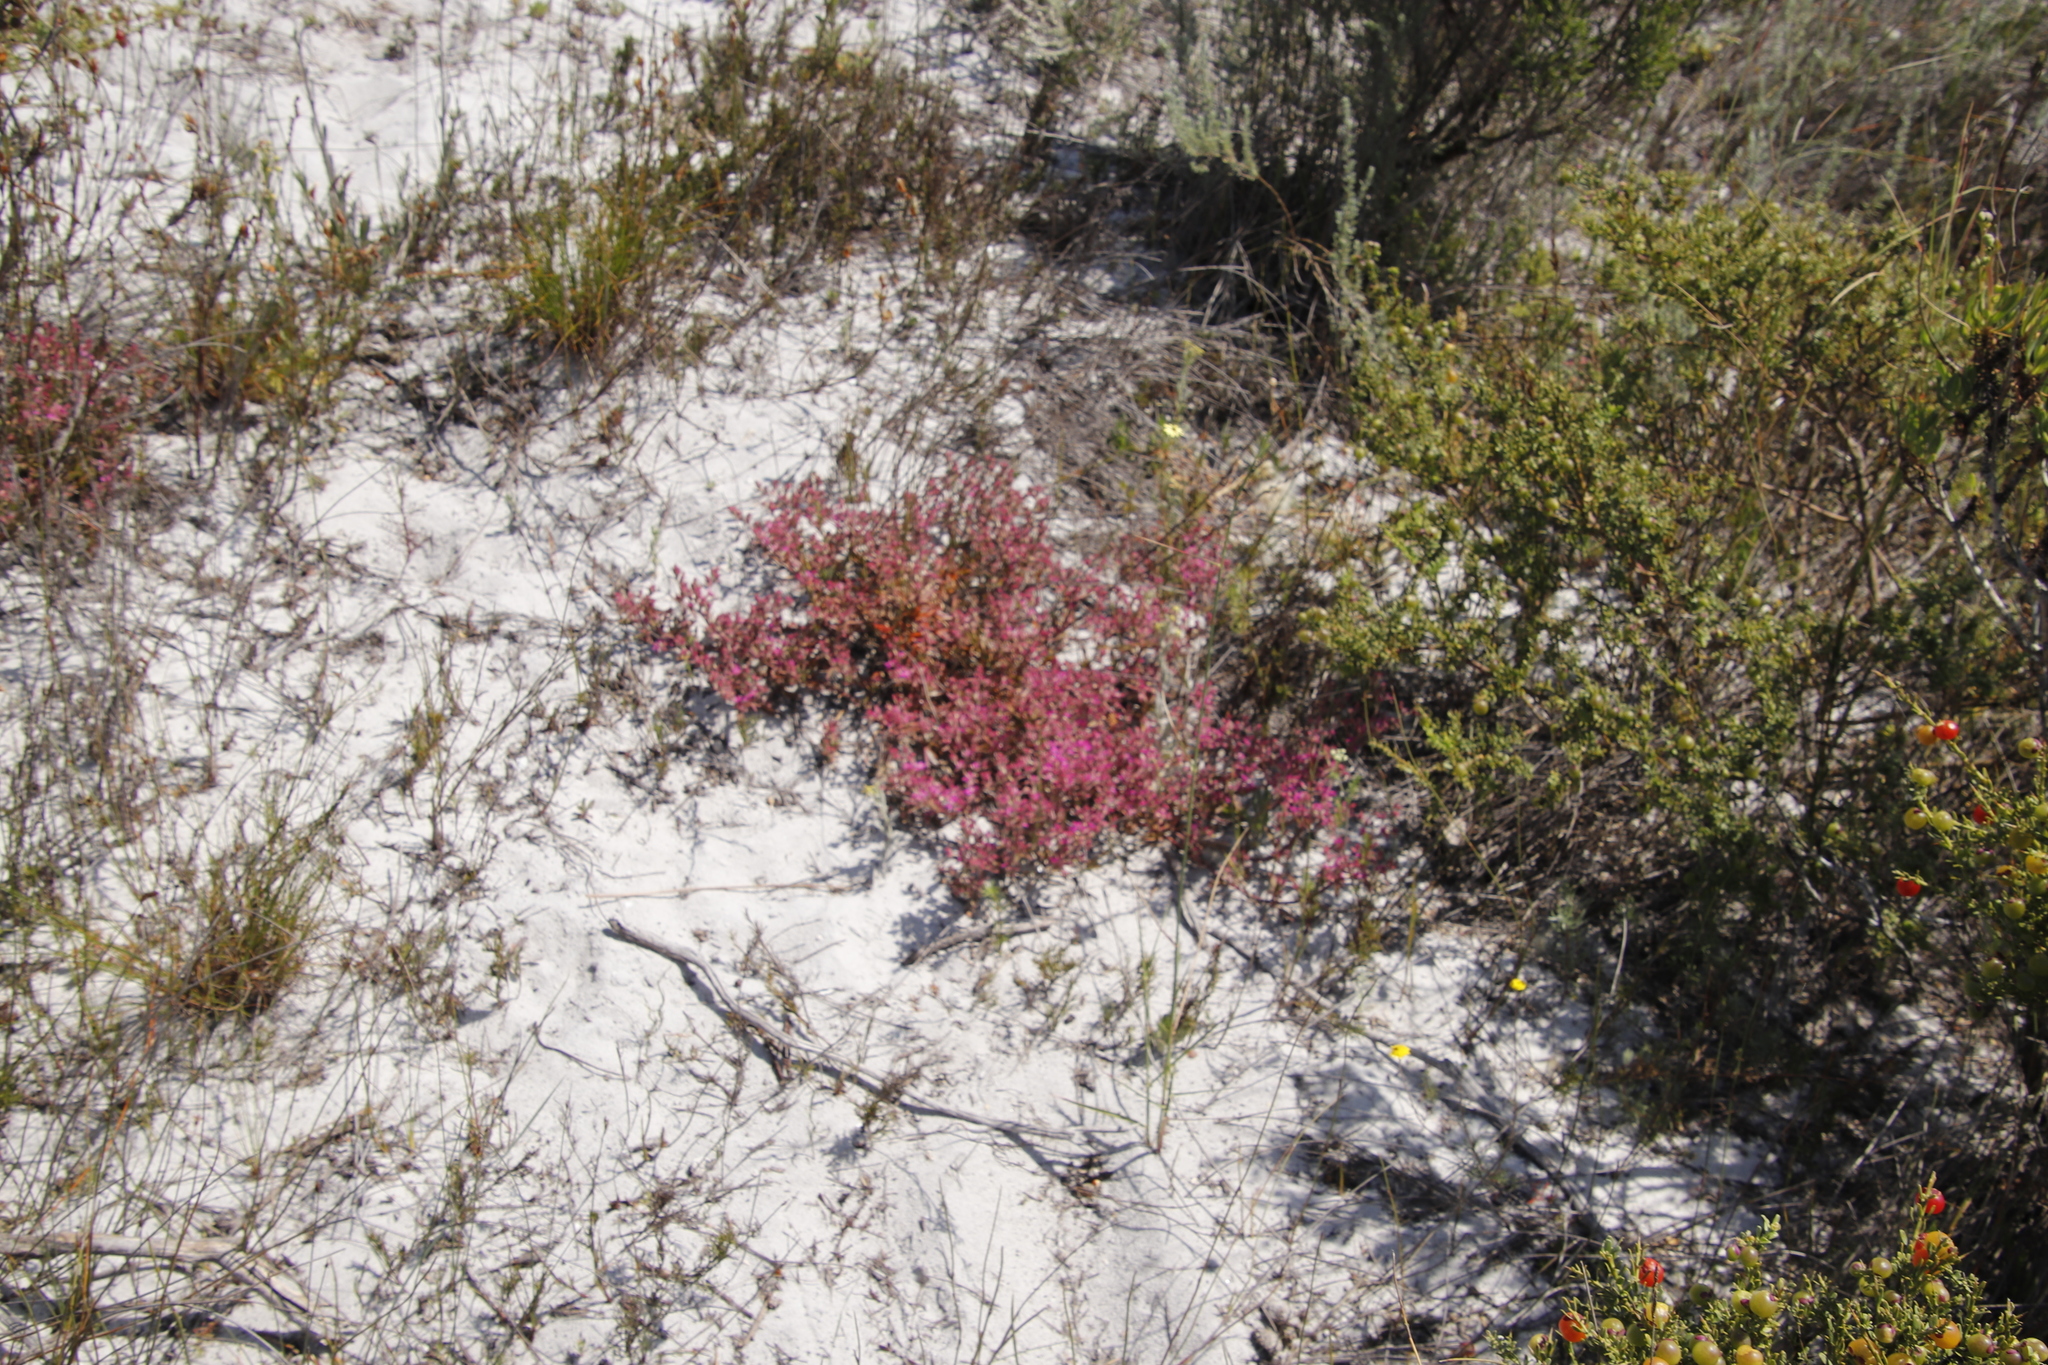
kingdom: Plantae
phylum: Tracheophyta
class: Magnoliopsida
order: Caryophyllales
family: Aizoaceae
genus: Aizoon
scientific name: Aizoon paniculatum
